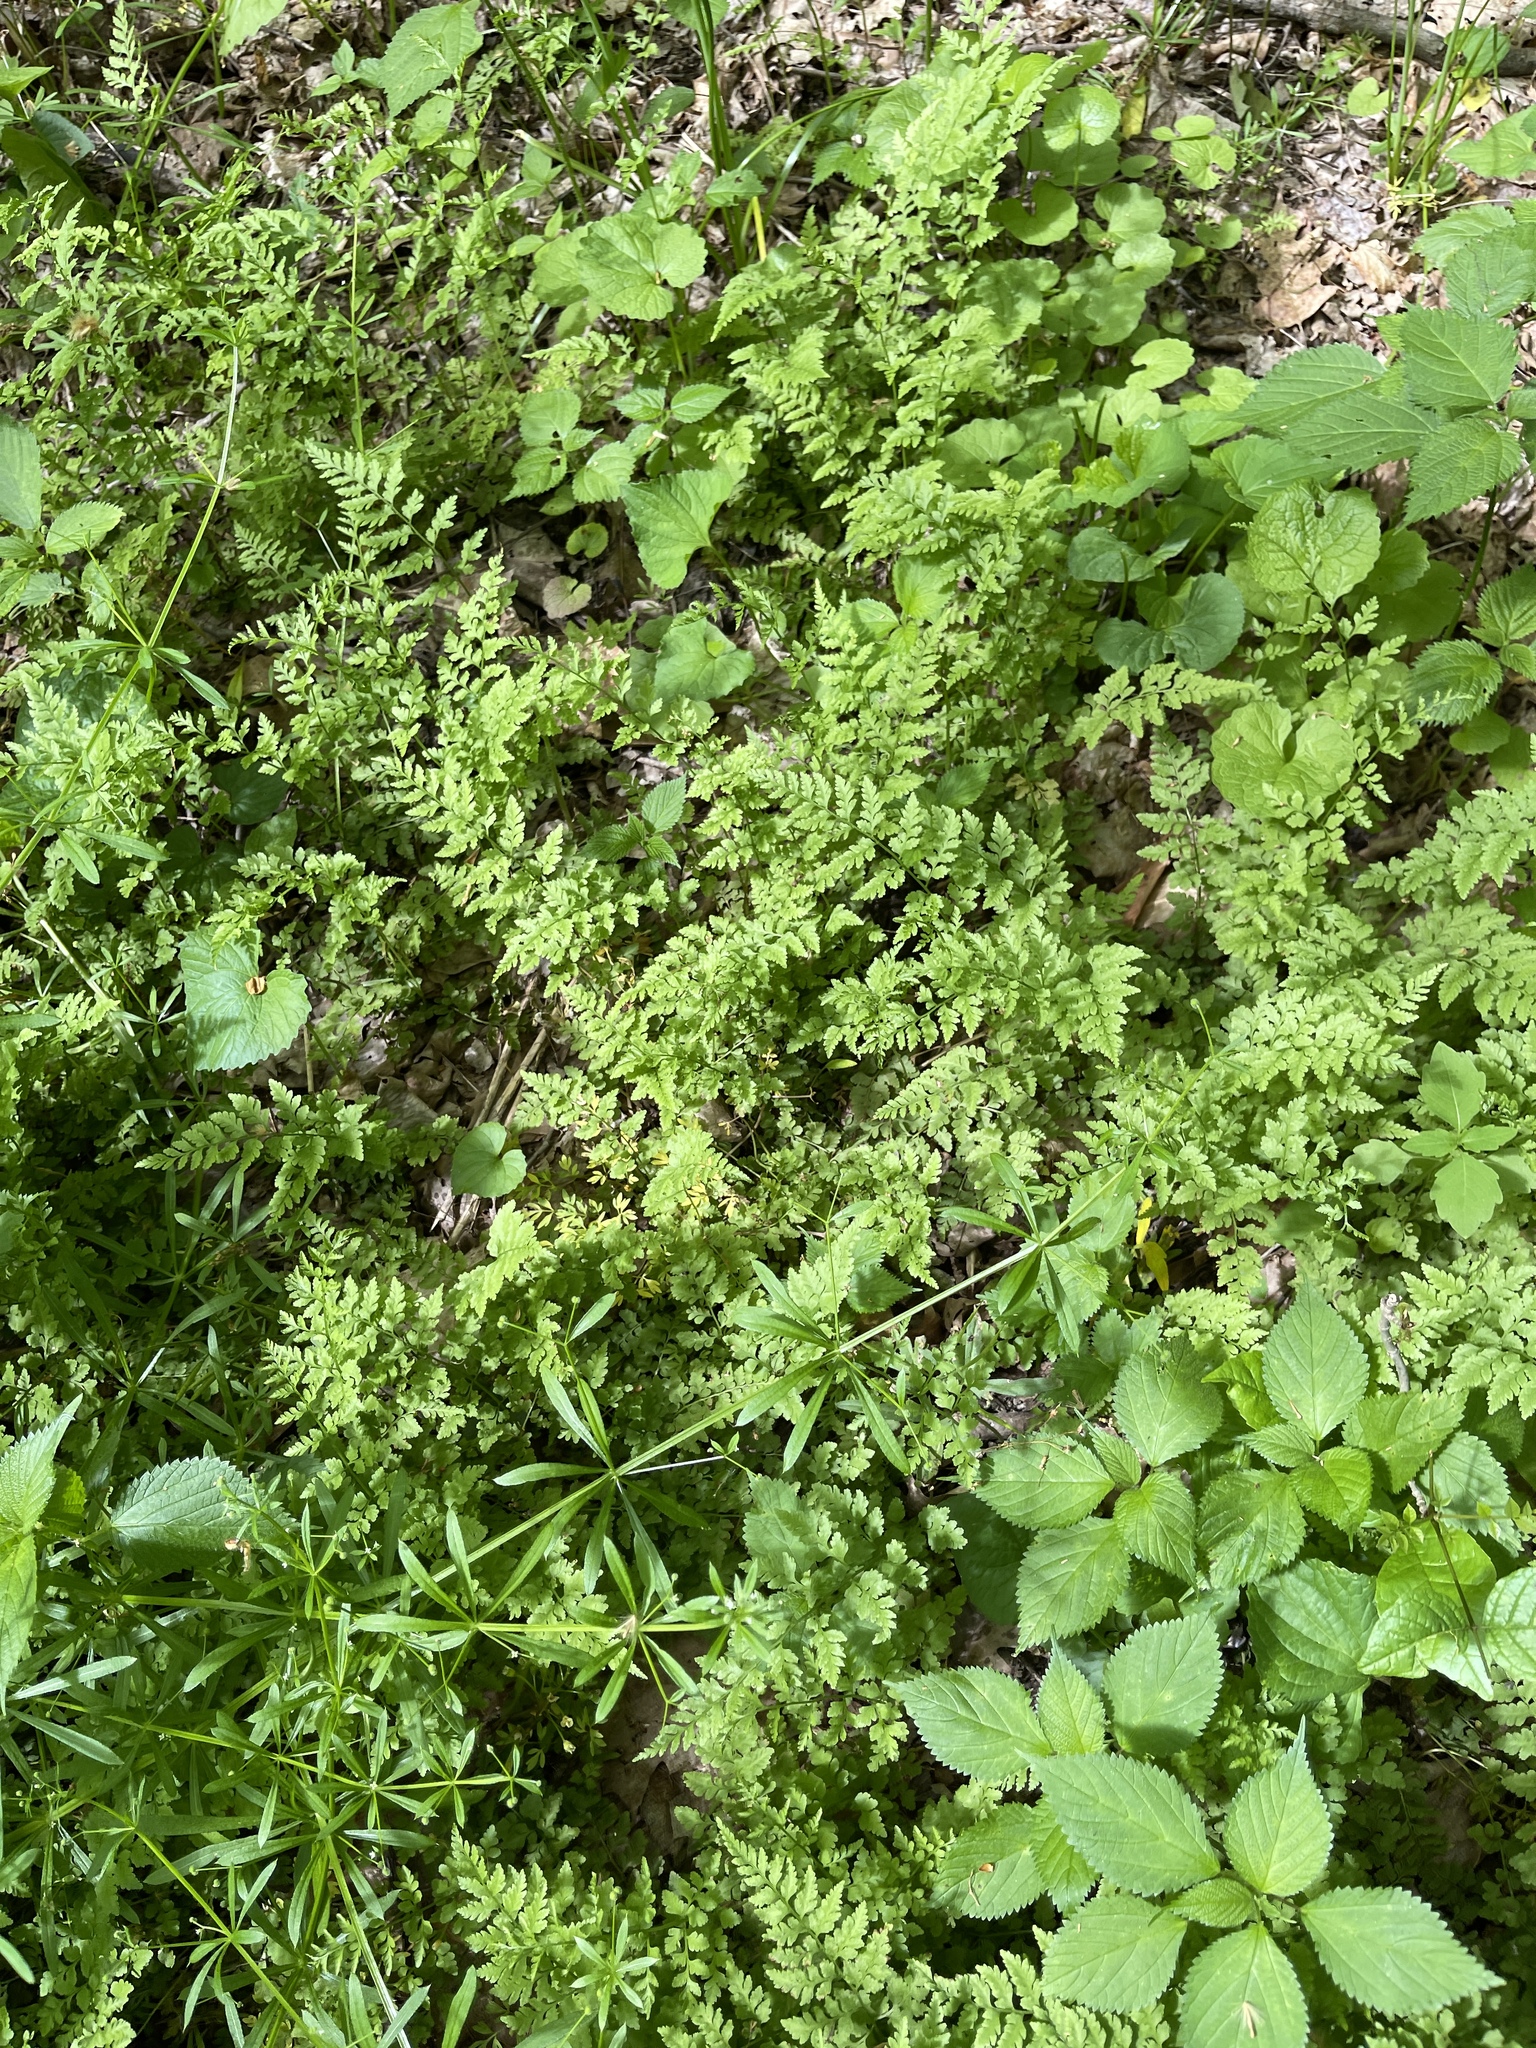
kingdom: Plantae
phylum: Tracheophyta
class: Polypodiopsida
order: Polypodiales
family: Cystopteridaceae
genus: Cystopteris
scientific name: Cystopteris protrusa
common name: Lowland brittle fern
